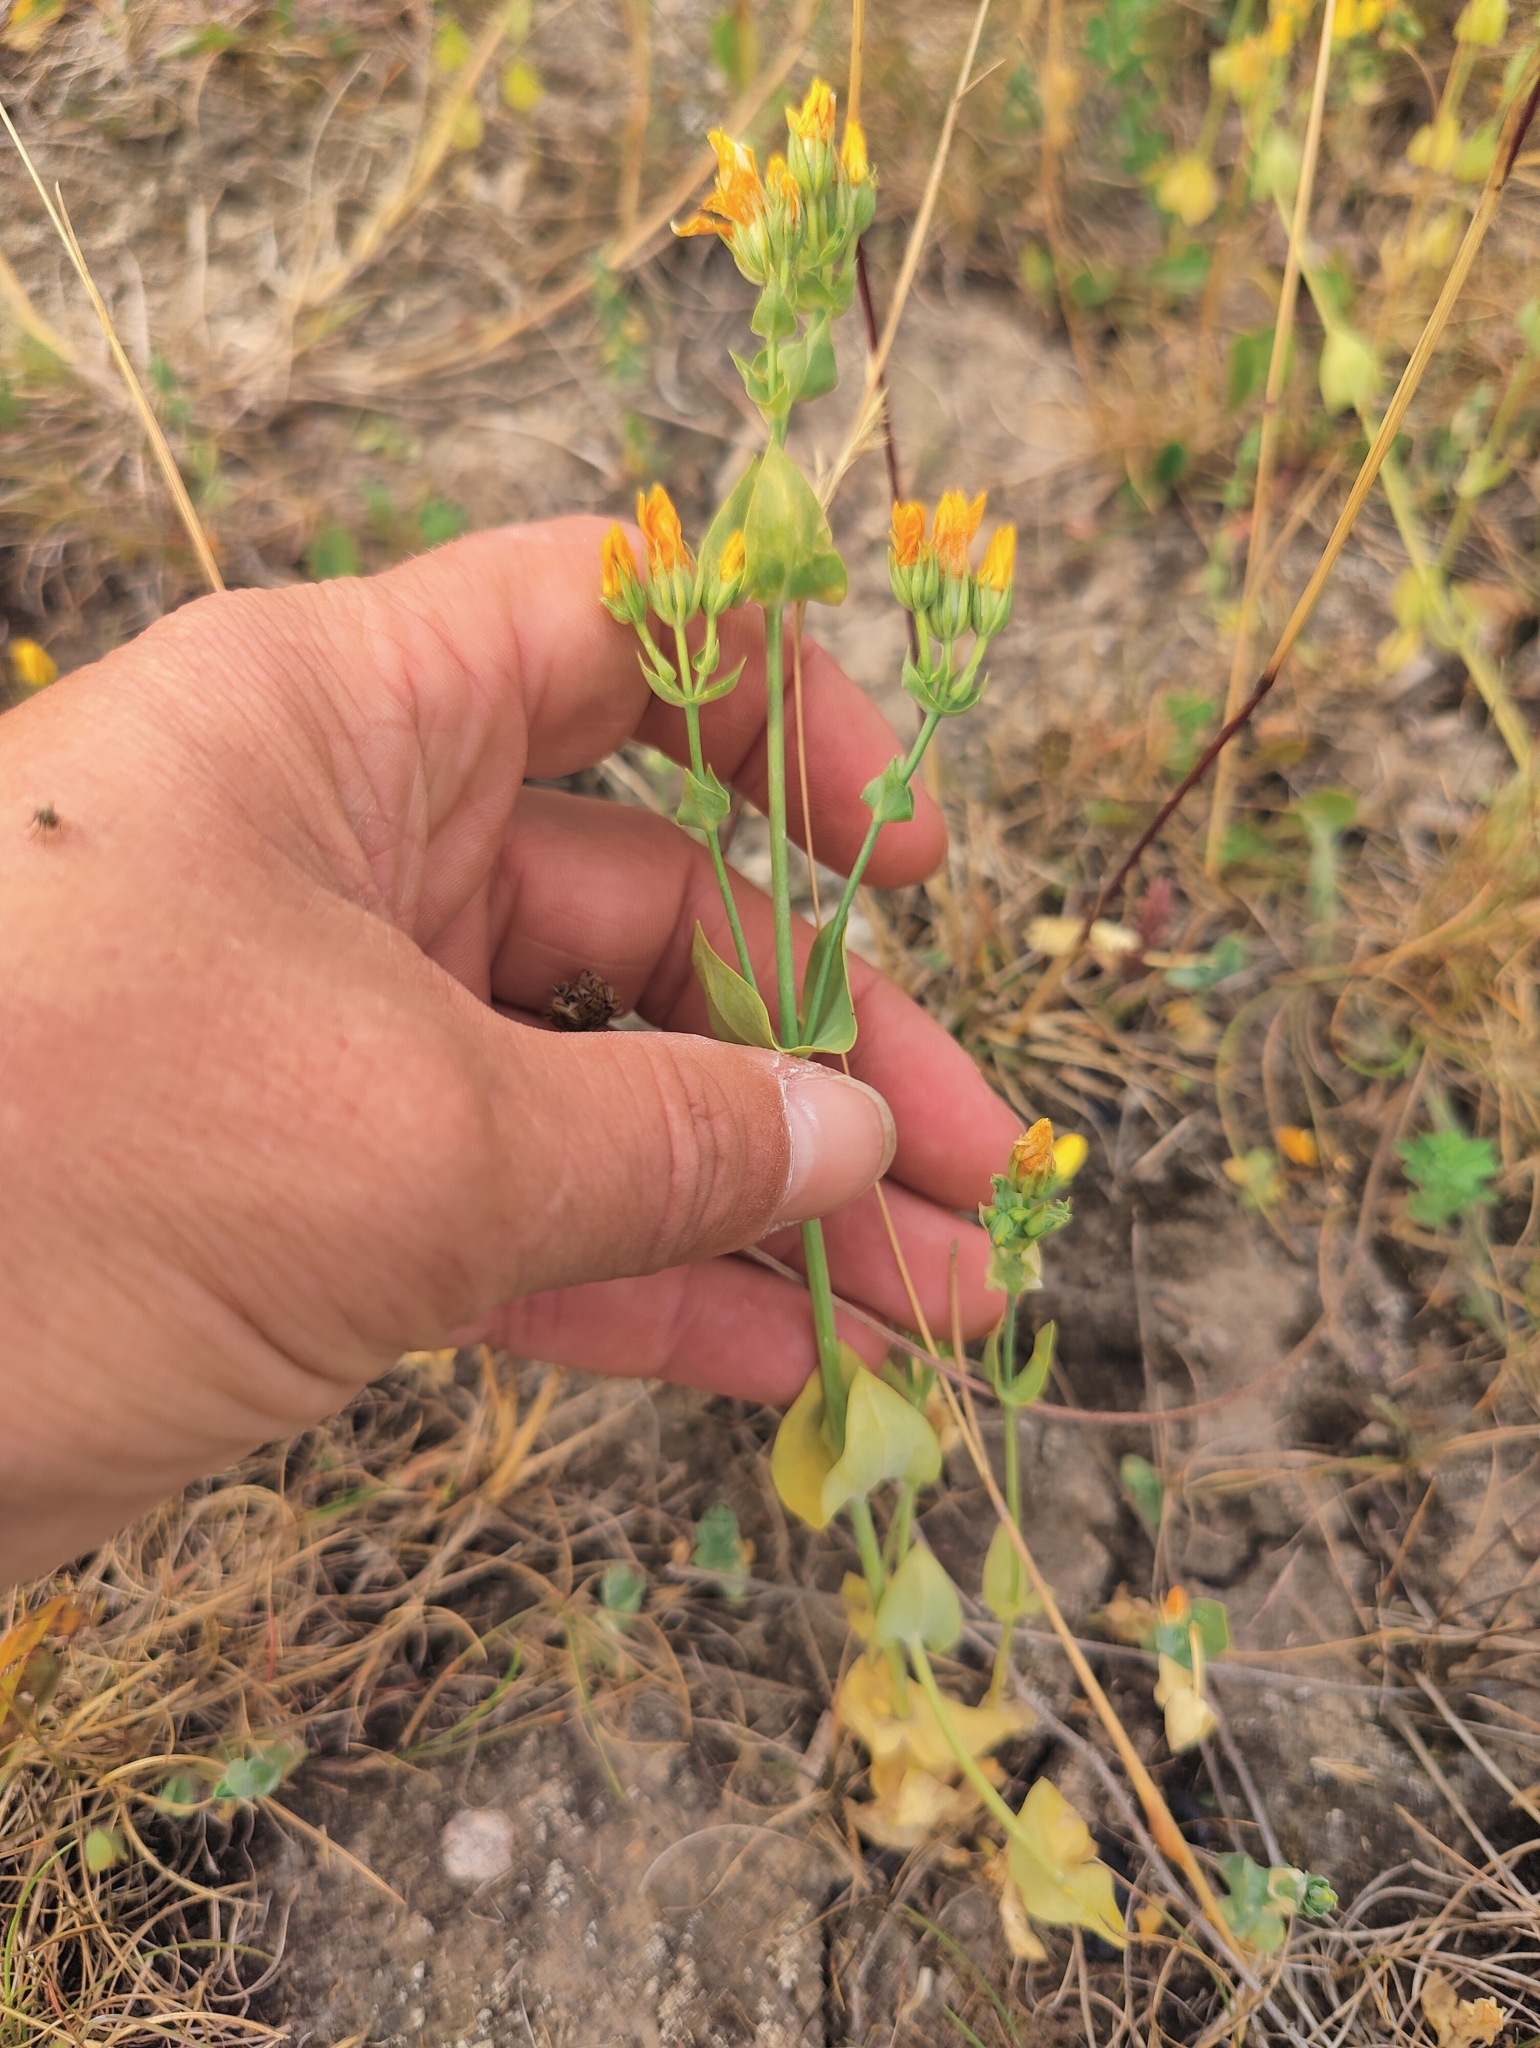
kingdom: Plantae
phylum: Tracheophyta
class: Magnoliopsida
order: Gentianales
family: Gentianaceae
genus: Blackstonia
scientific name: Blackstonia perfoliata
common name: Yellow-wort
